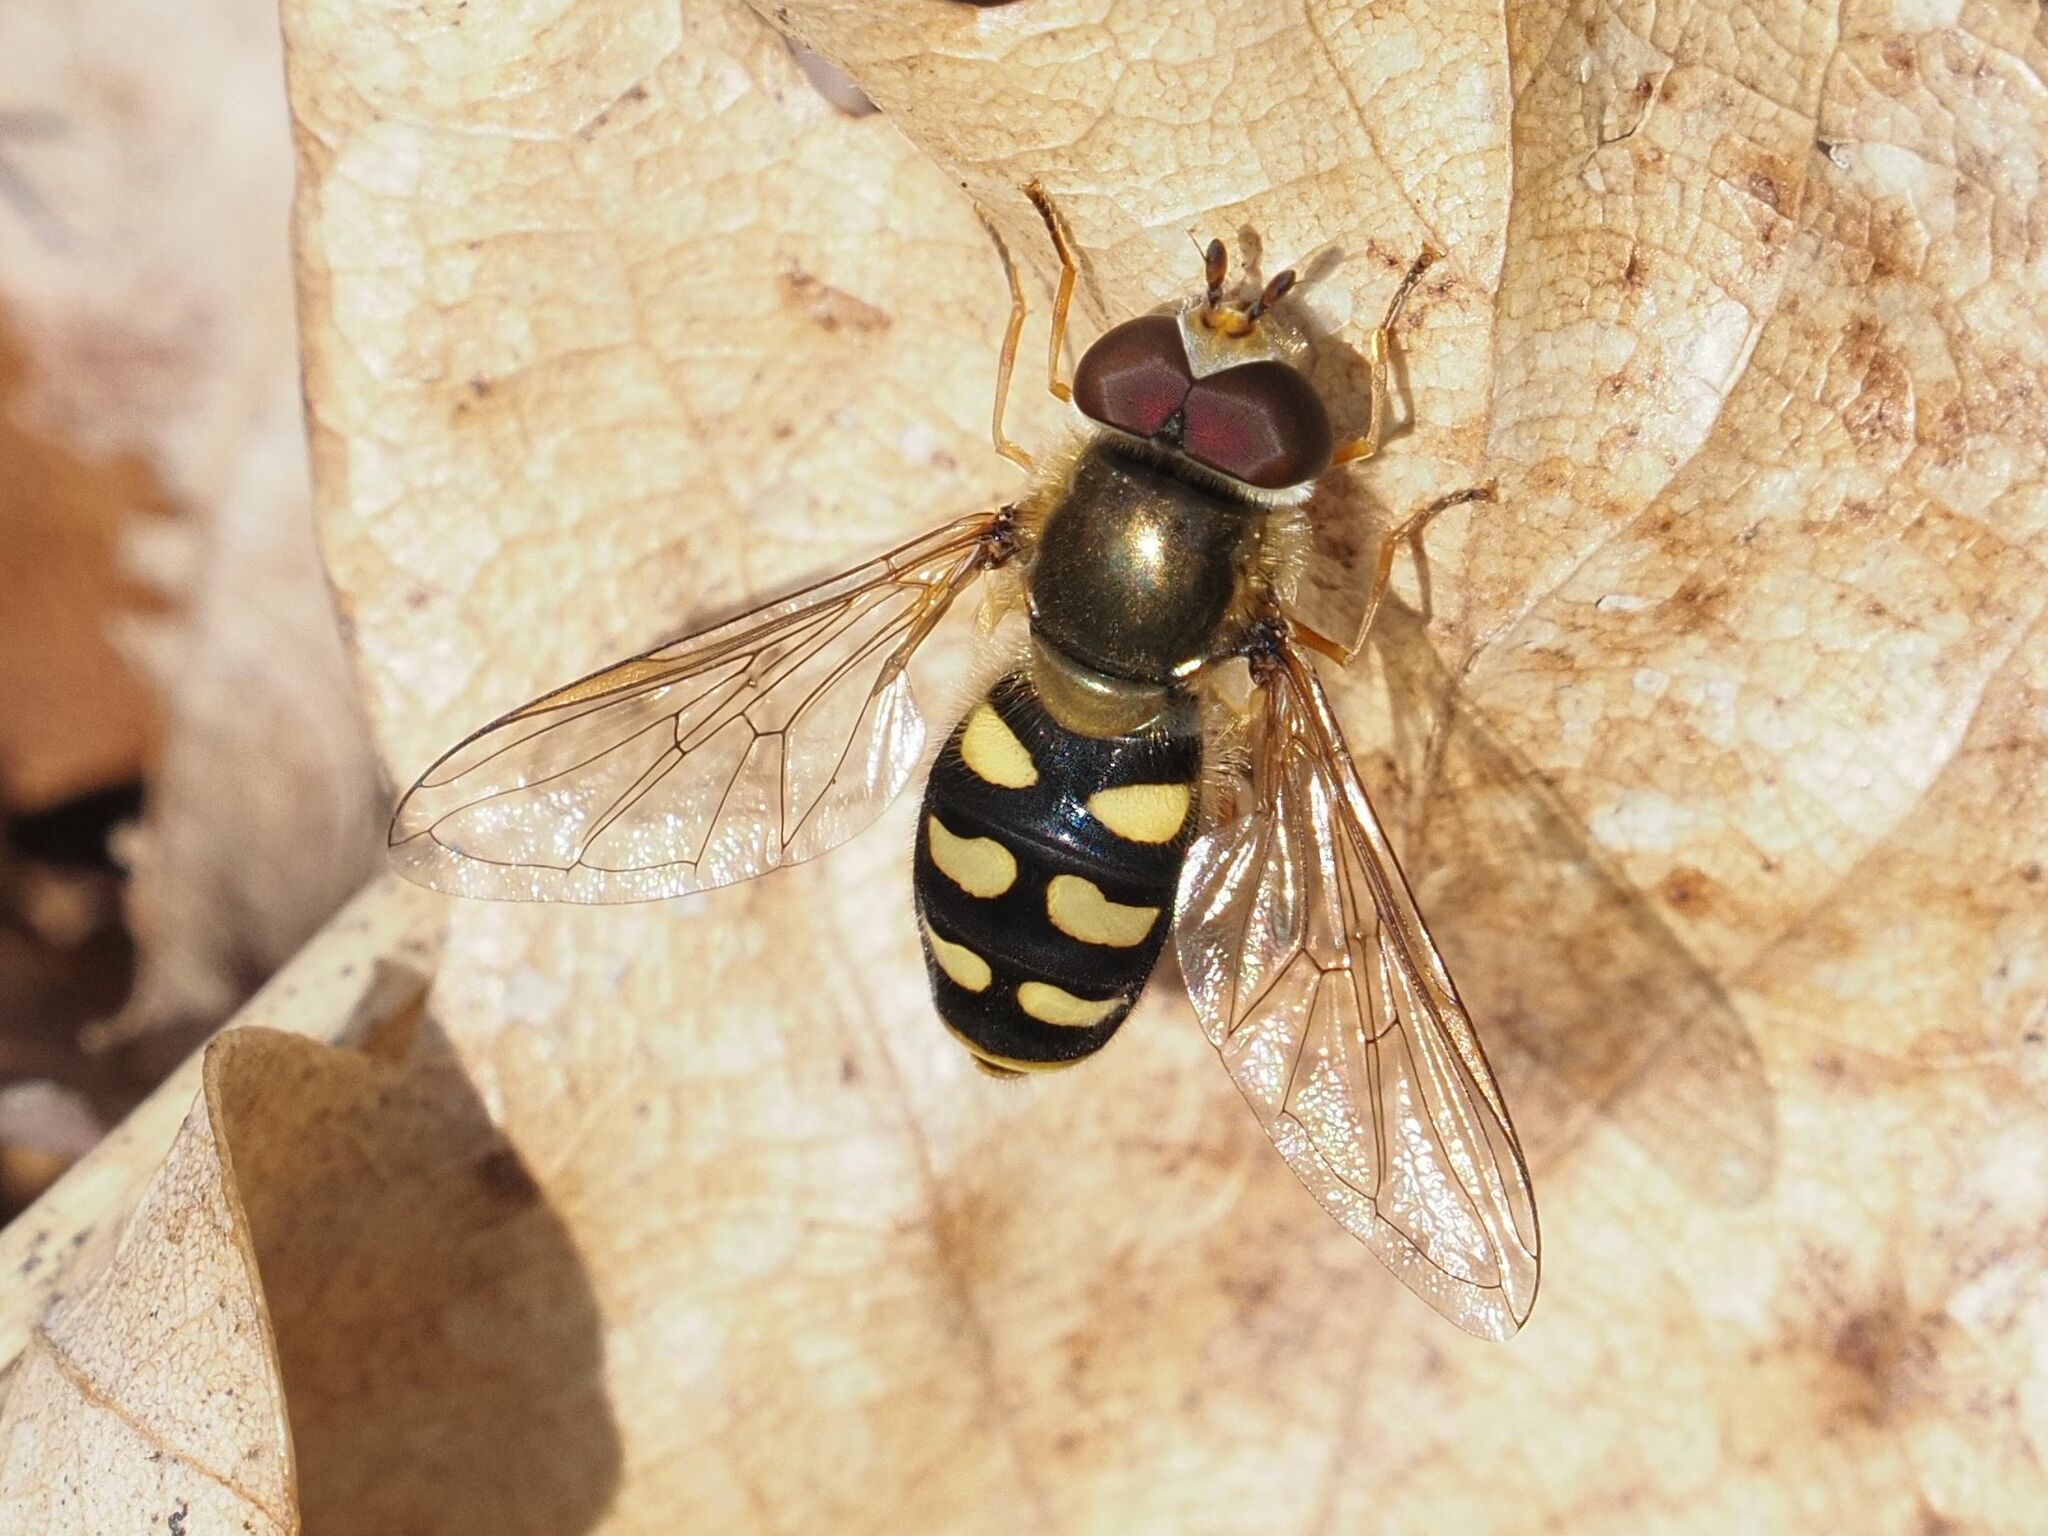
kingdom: Animalia
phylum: Arthropoda
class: Insecta
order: Diptera
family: Syrphidae
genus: Eupeodes
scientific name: Eupeodes luniger
